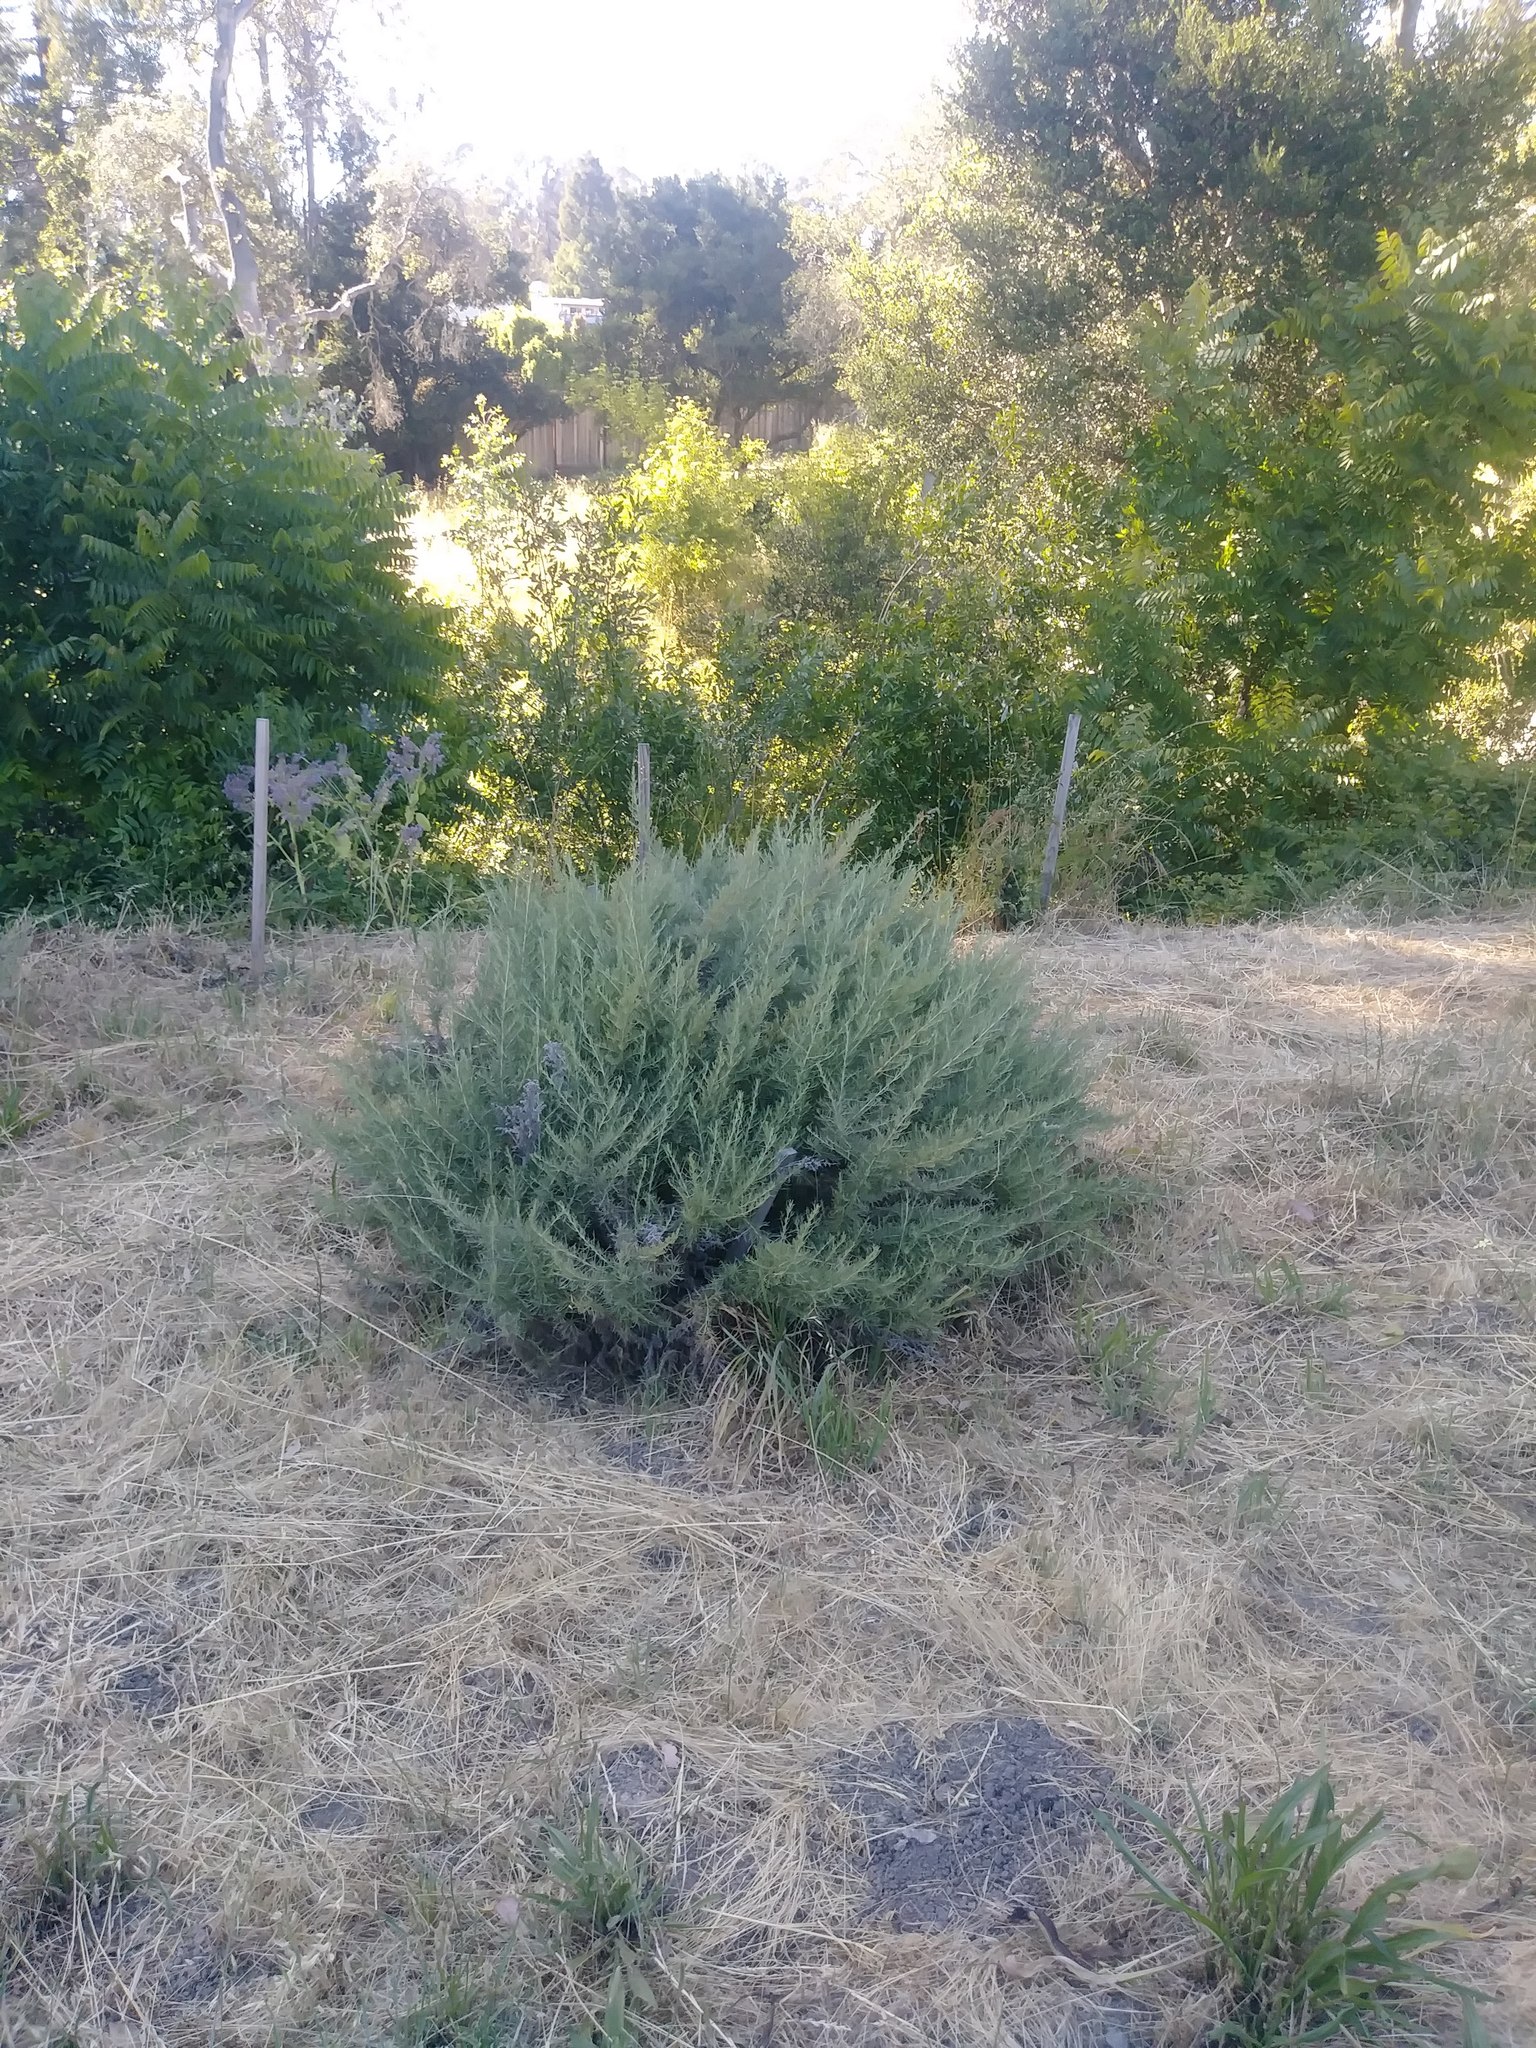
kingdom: Plantae
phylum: Tracheophyta
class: Magnoliopsida
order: Asterales
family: Asteraceae
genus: Artemisia
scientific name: Artemisia californica
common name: California sagebrush
